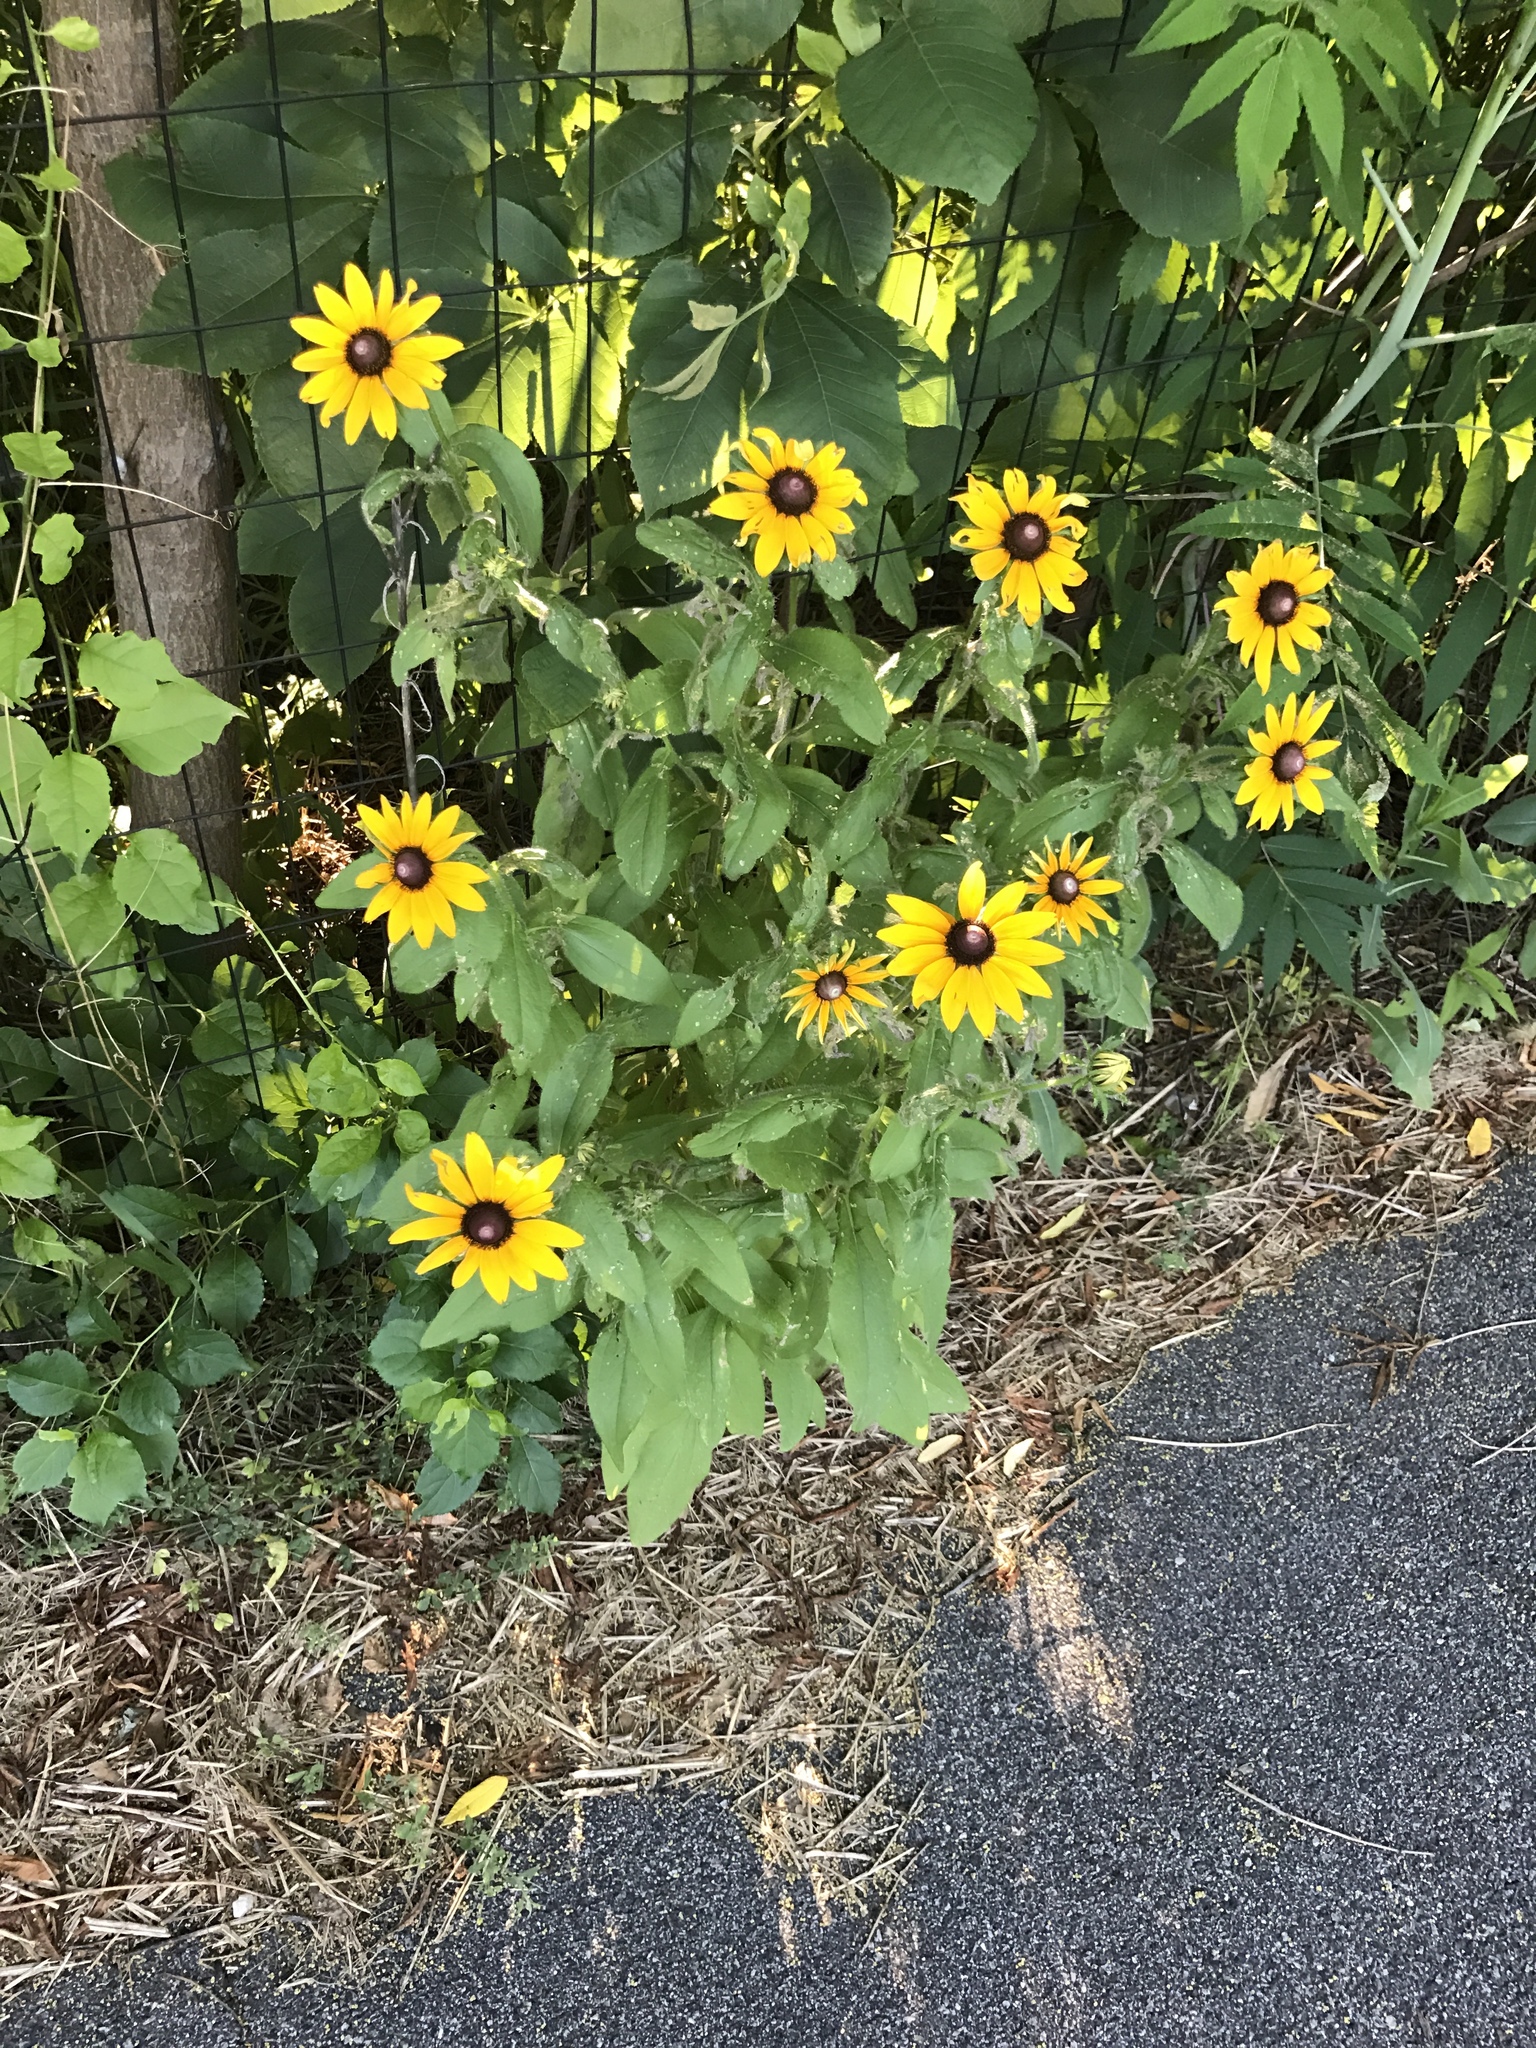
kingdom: Plantae
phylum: Tracheophyta
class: Magnoliopsida
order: Asterales
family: Asteraceae
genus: Rudbeckia
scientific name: Rudbeckia hirta
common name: Black-eyed-susan
